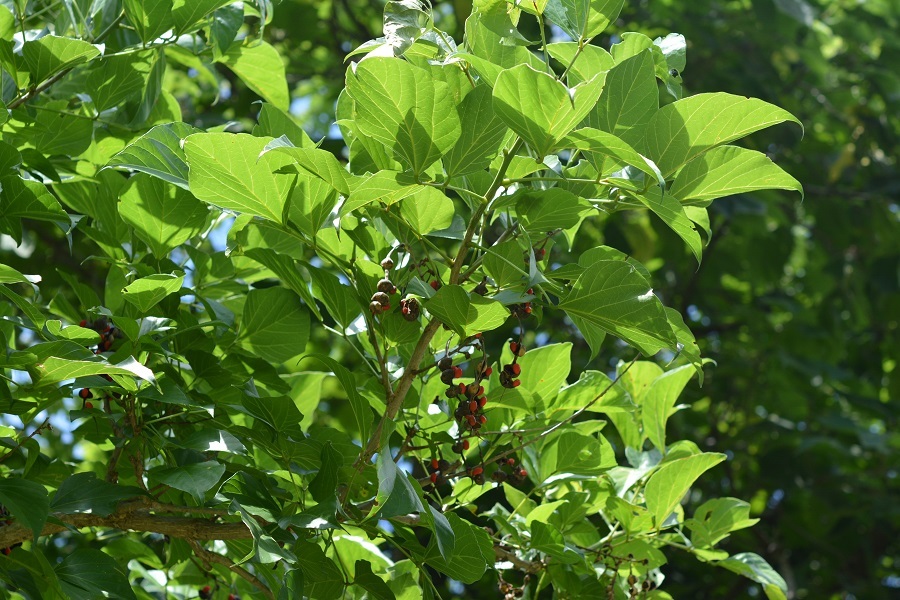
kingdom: Plantae
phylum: Tracheophyta
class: Magnoliopsida
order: Fabales
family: Fabaceae
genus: Erythrina
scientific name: Erythrina americana
